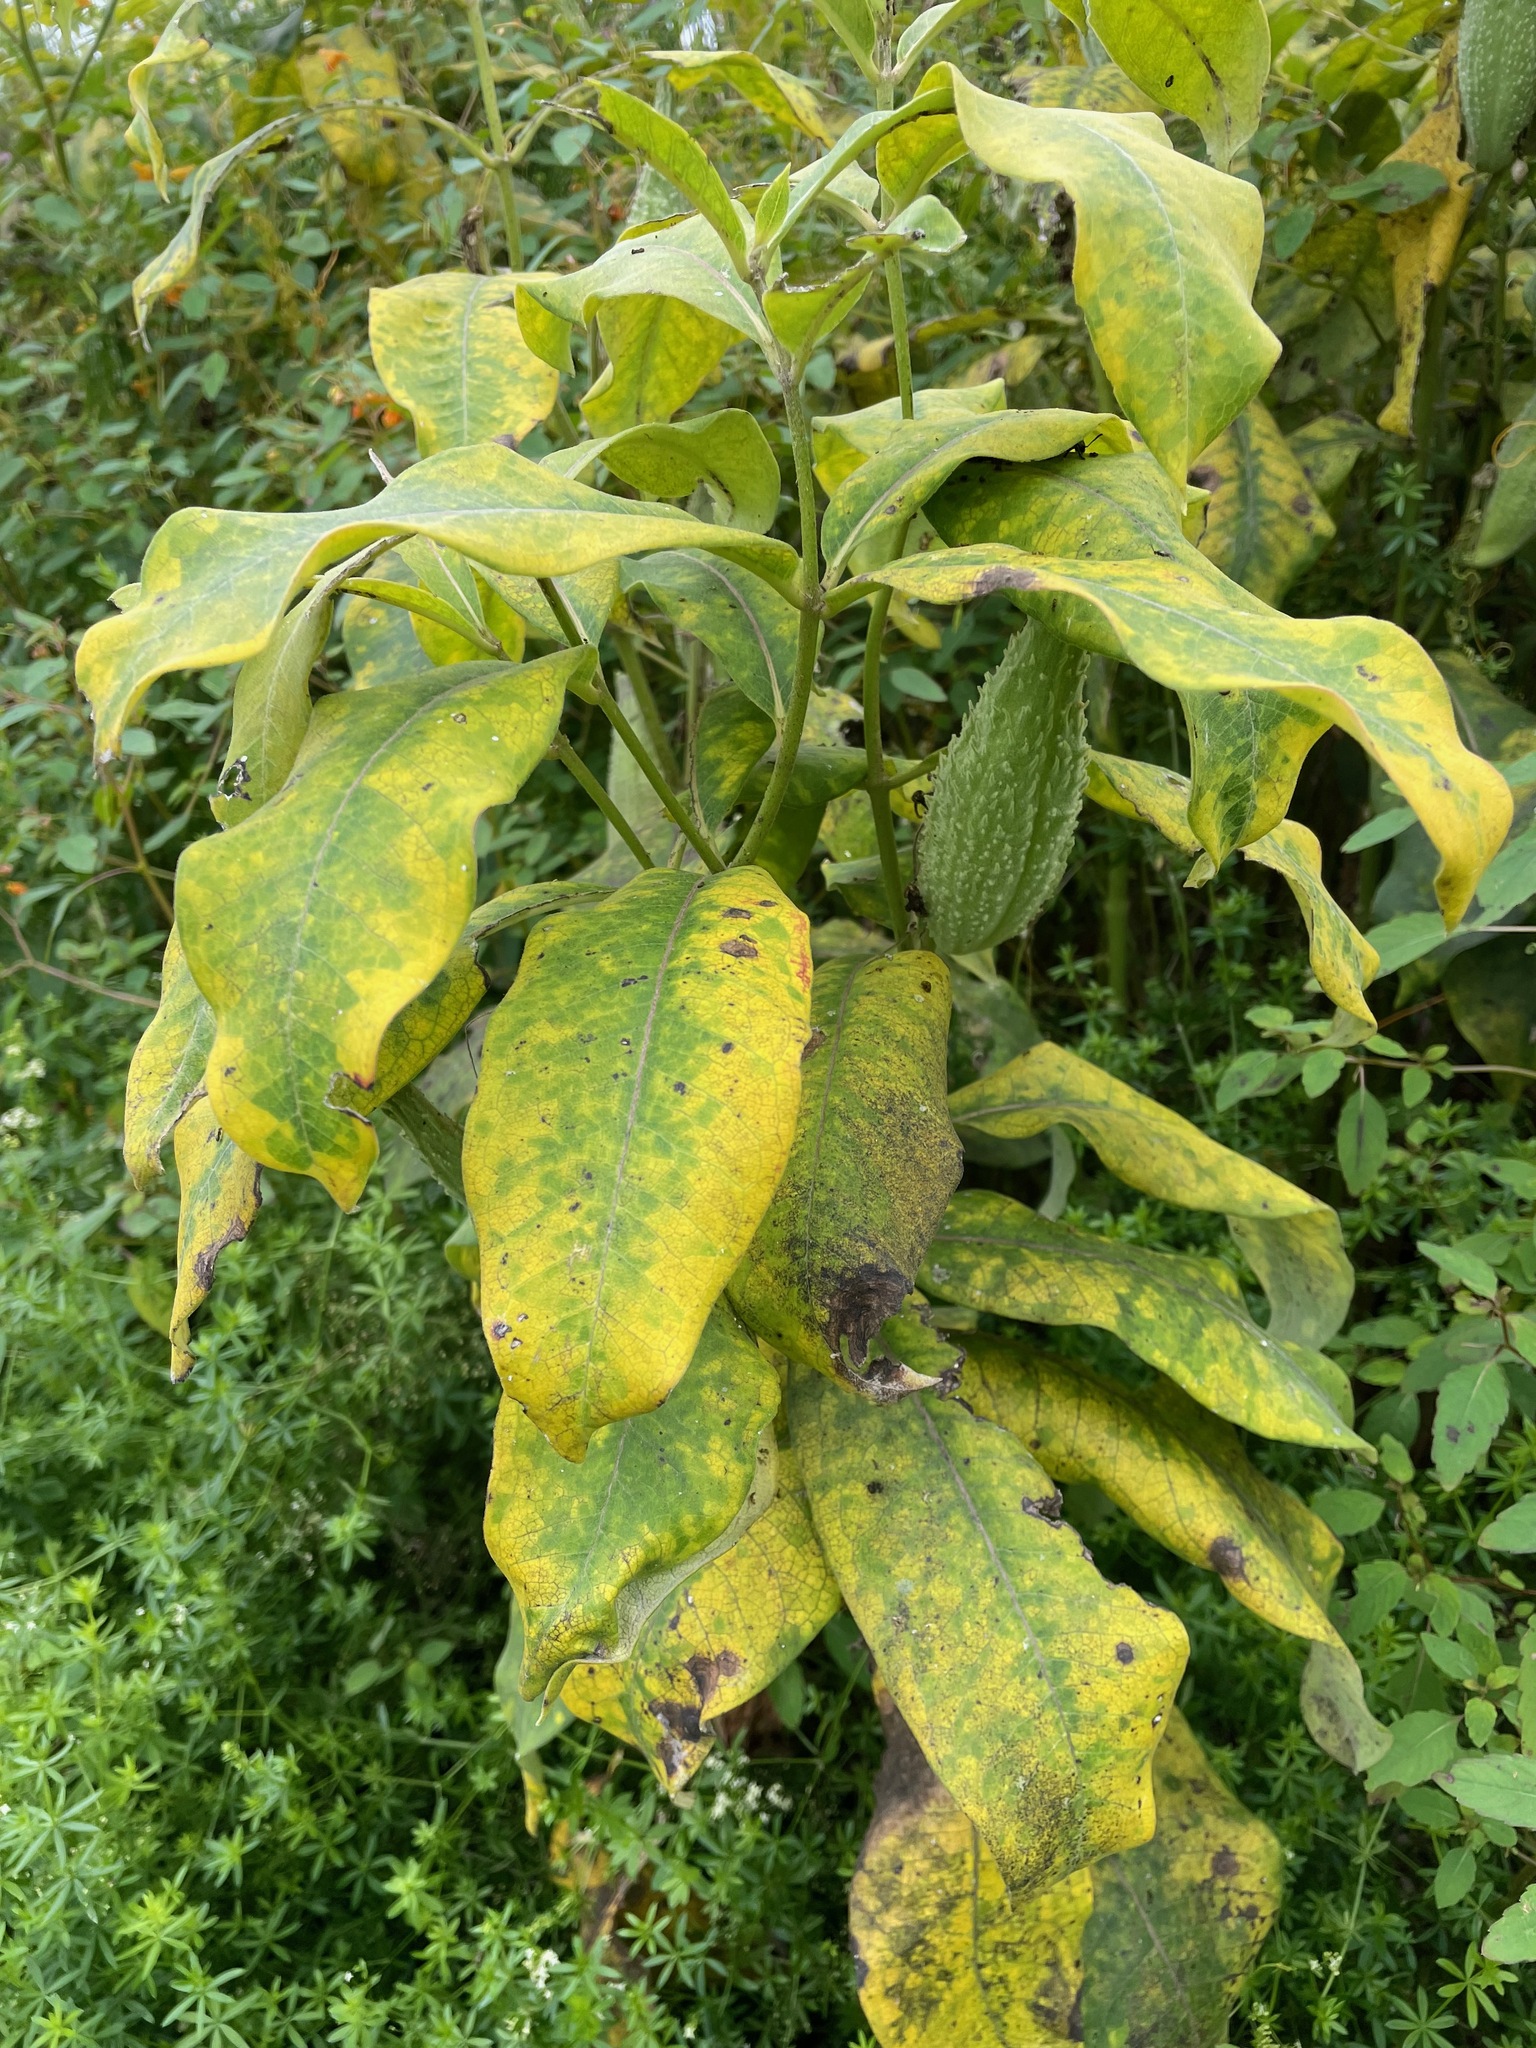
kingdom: Plantae
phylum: Tracheophyta
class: Magnoliopsida
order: Gentianales
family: Apocynaceae
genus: Asclepias
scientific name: Asclepias syriaca
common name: Common milkweed
